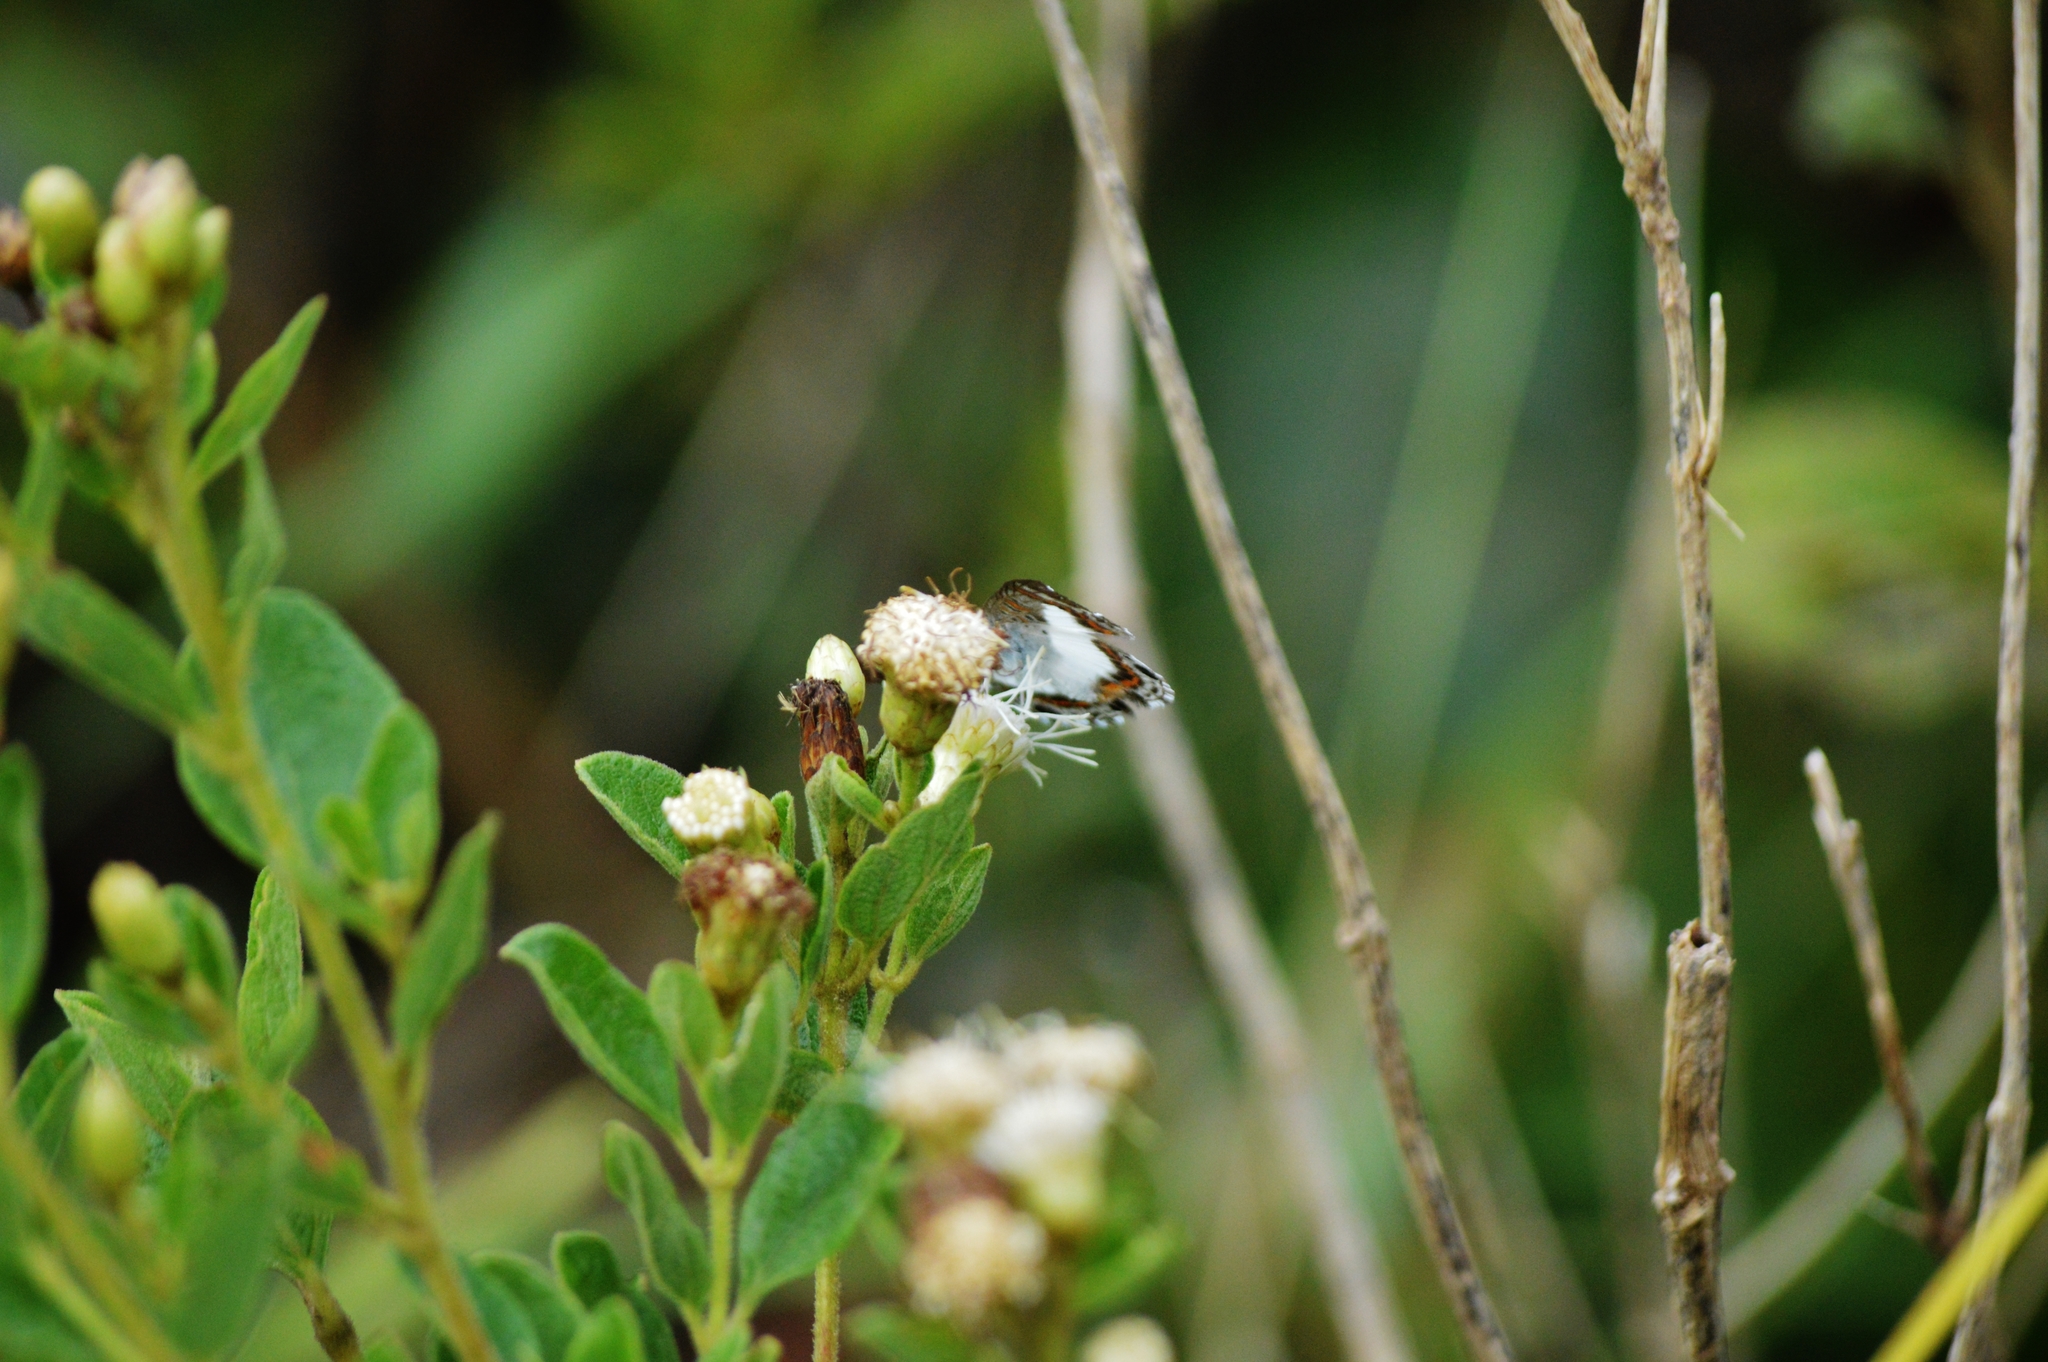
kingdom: Animalia
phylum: Arthropoda
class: Insecta
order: Lepidoptera
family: Riodinidae
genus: Synargis
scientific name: Synargis
